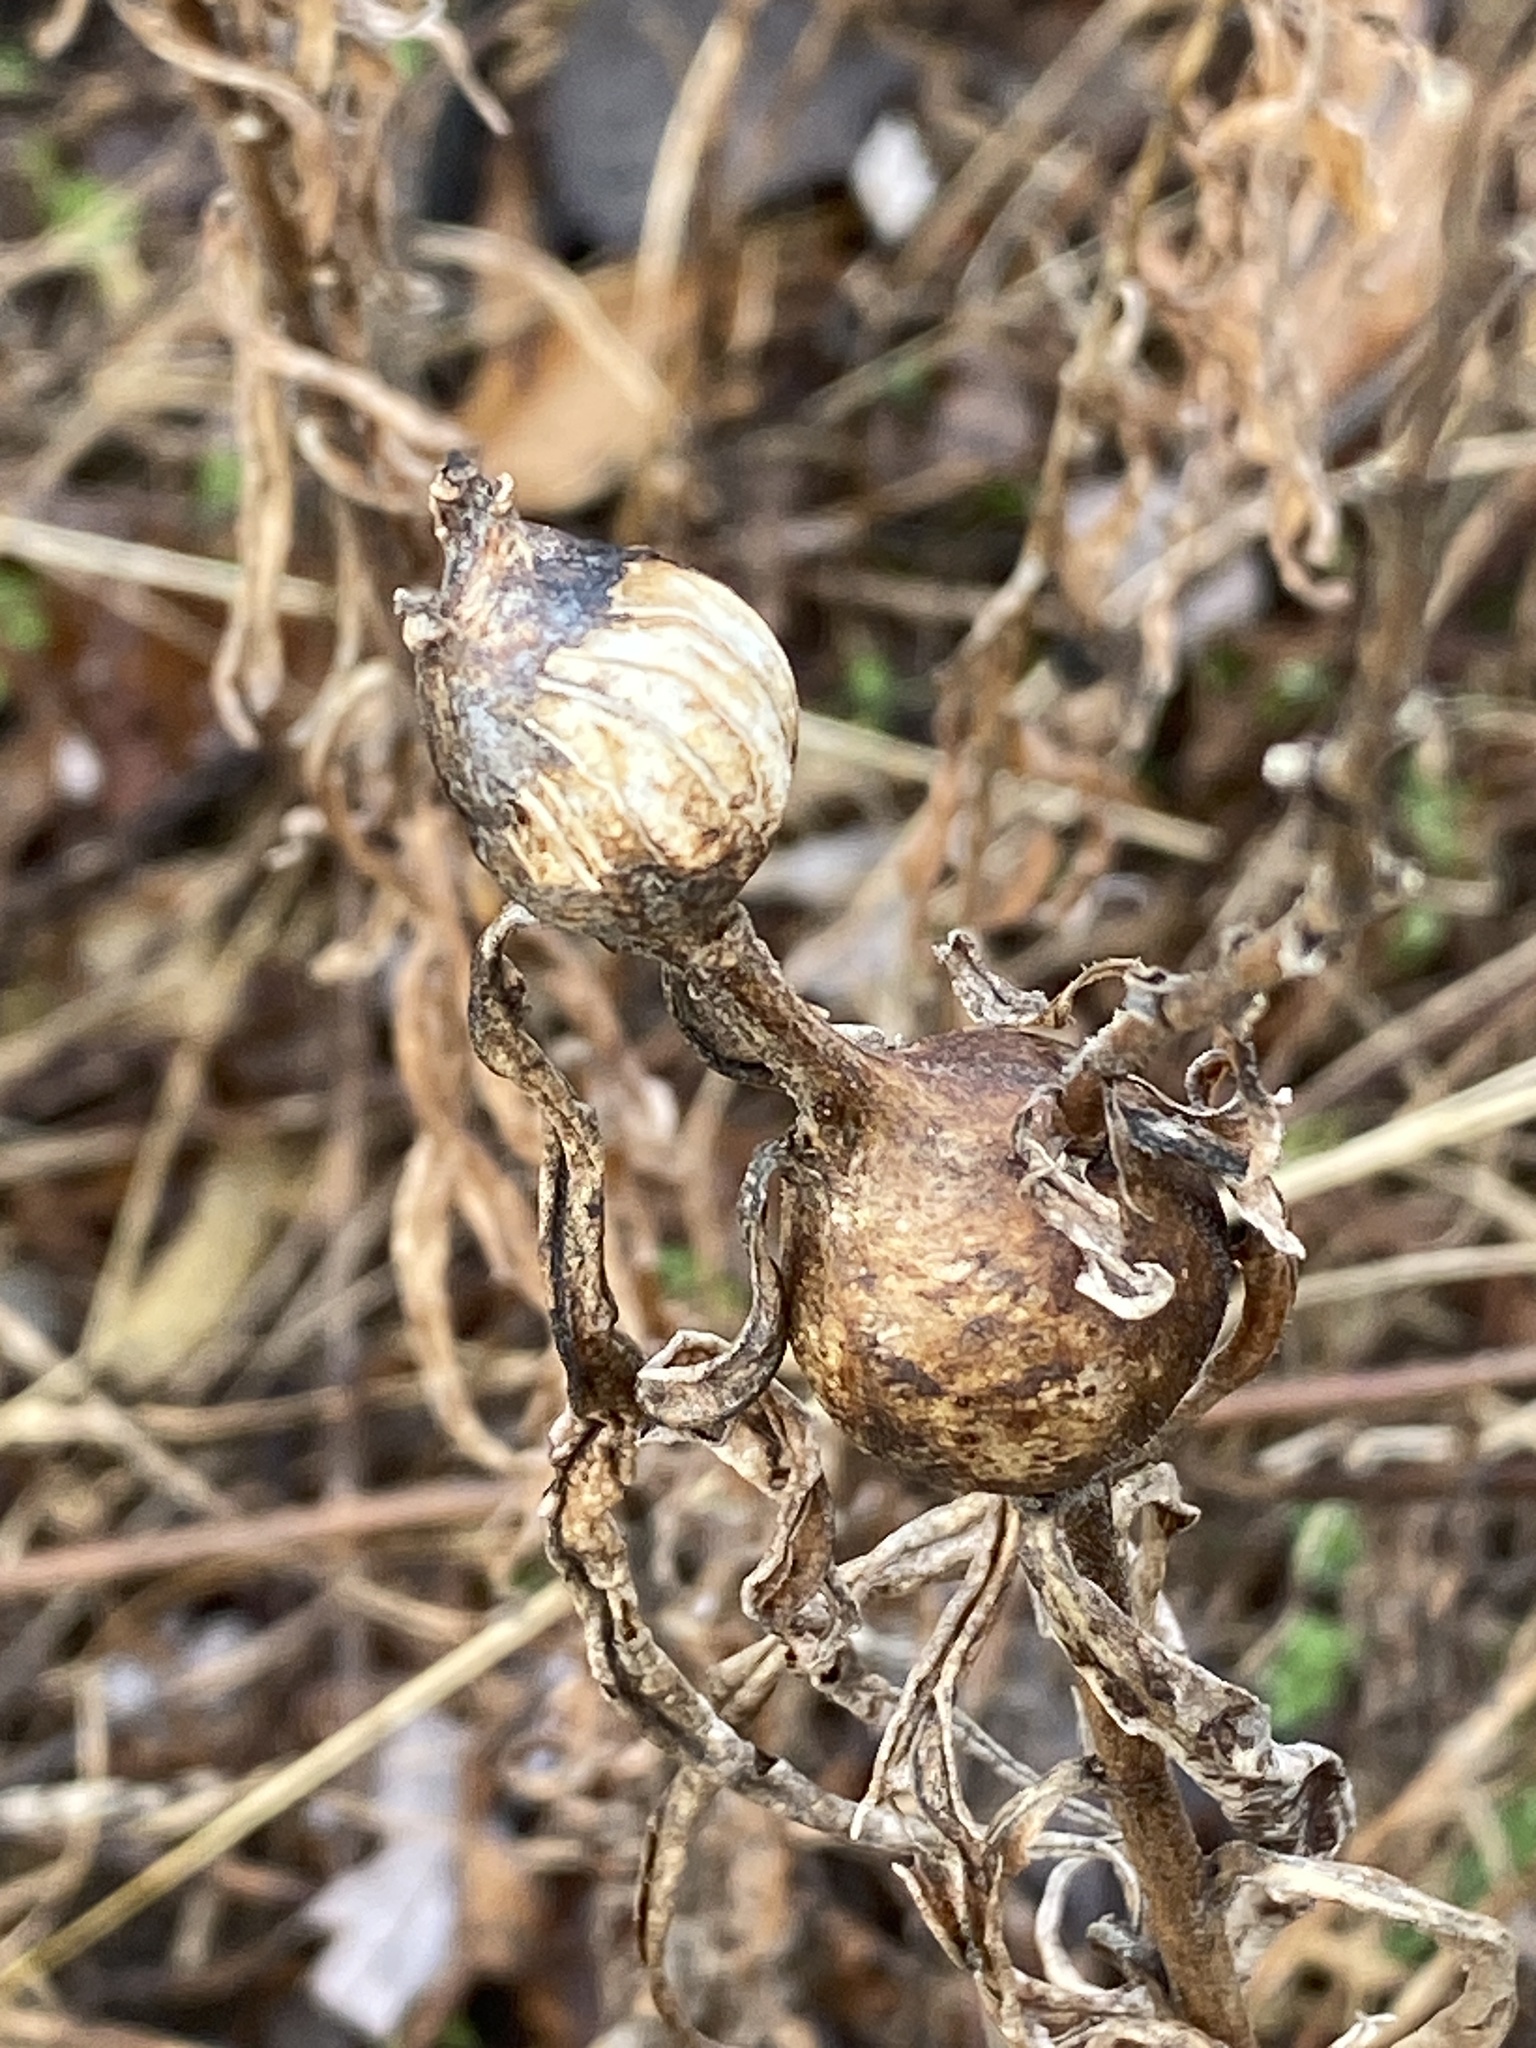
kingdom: Animalia
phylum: Arthropoda
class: Insecta
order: Diptera
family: Tephritidae
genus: Eurosta
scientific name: Eurosta solidaginis
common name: Goldenrod gall fly
